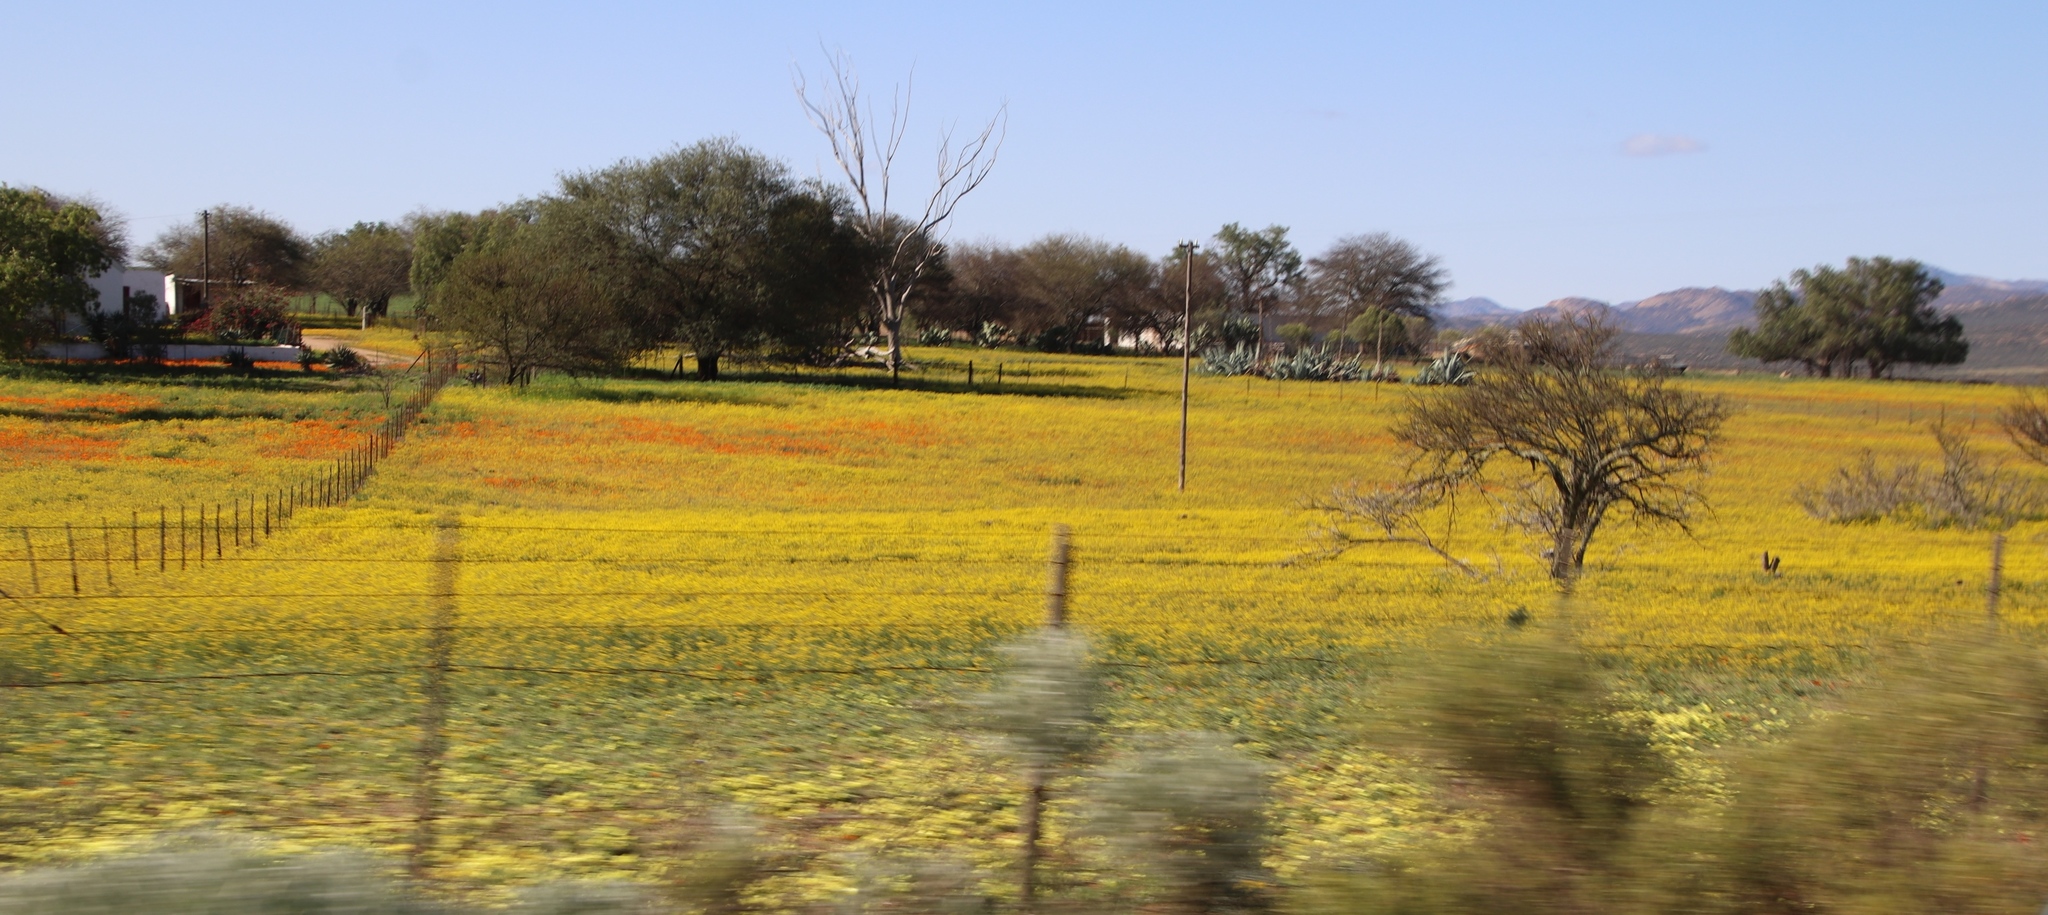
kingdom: Plantae
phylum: Tracheophyta
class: Magnoliopsida
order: Asterales
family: Asteraceae
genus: Senecio
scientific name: Senecio abruptus
